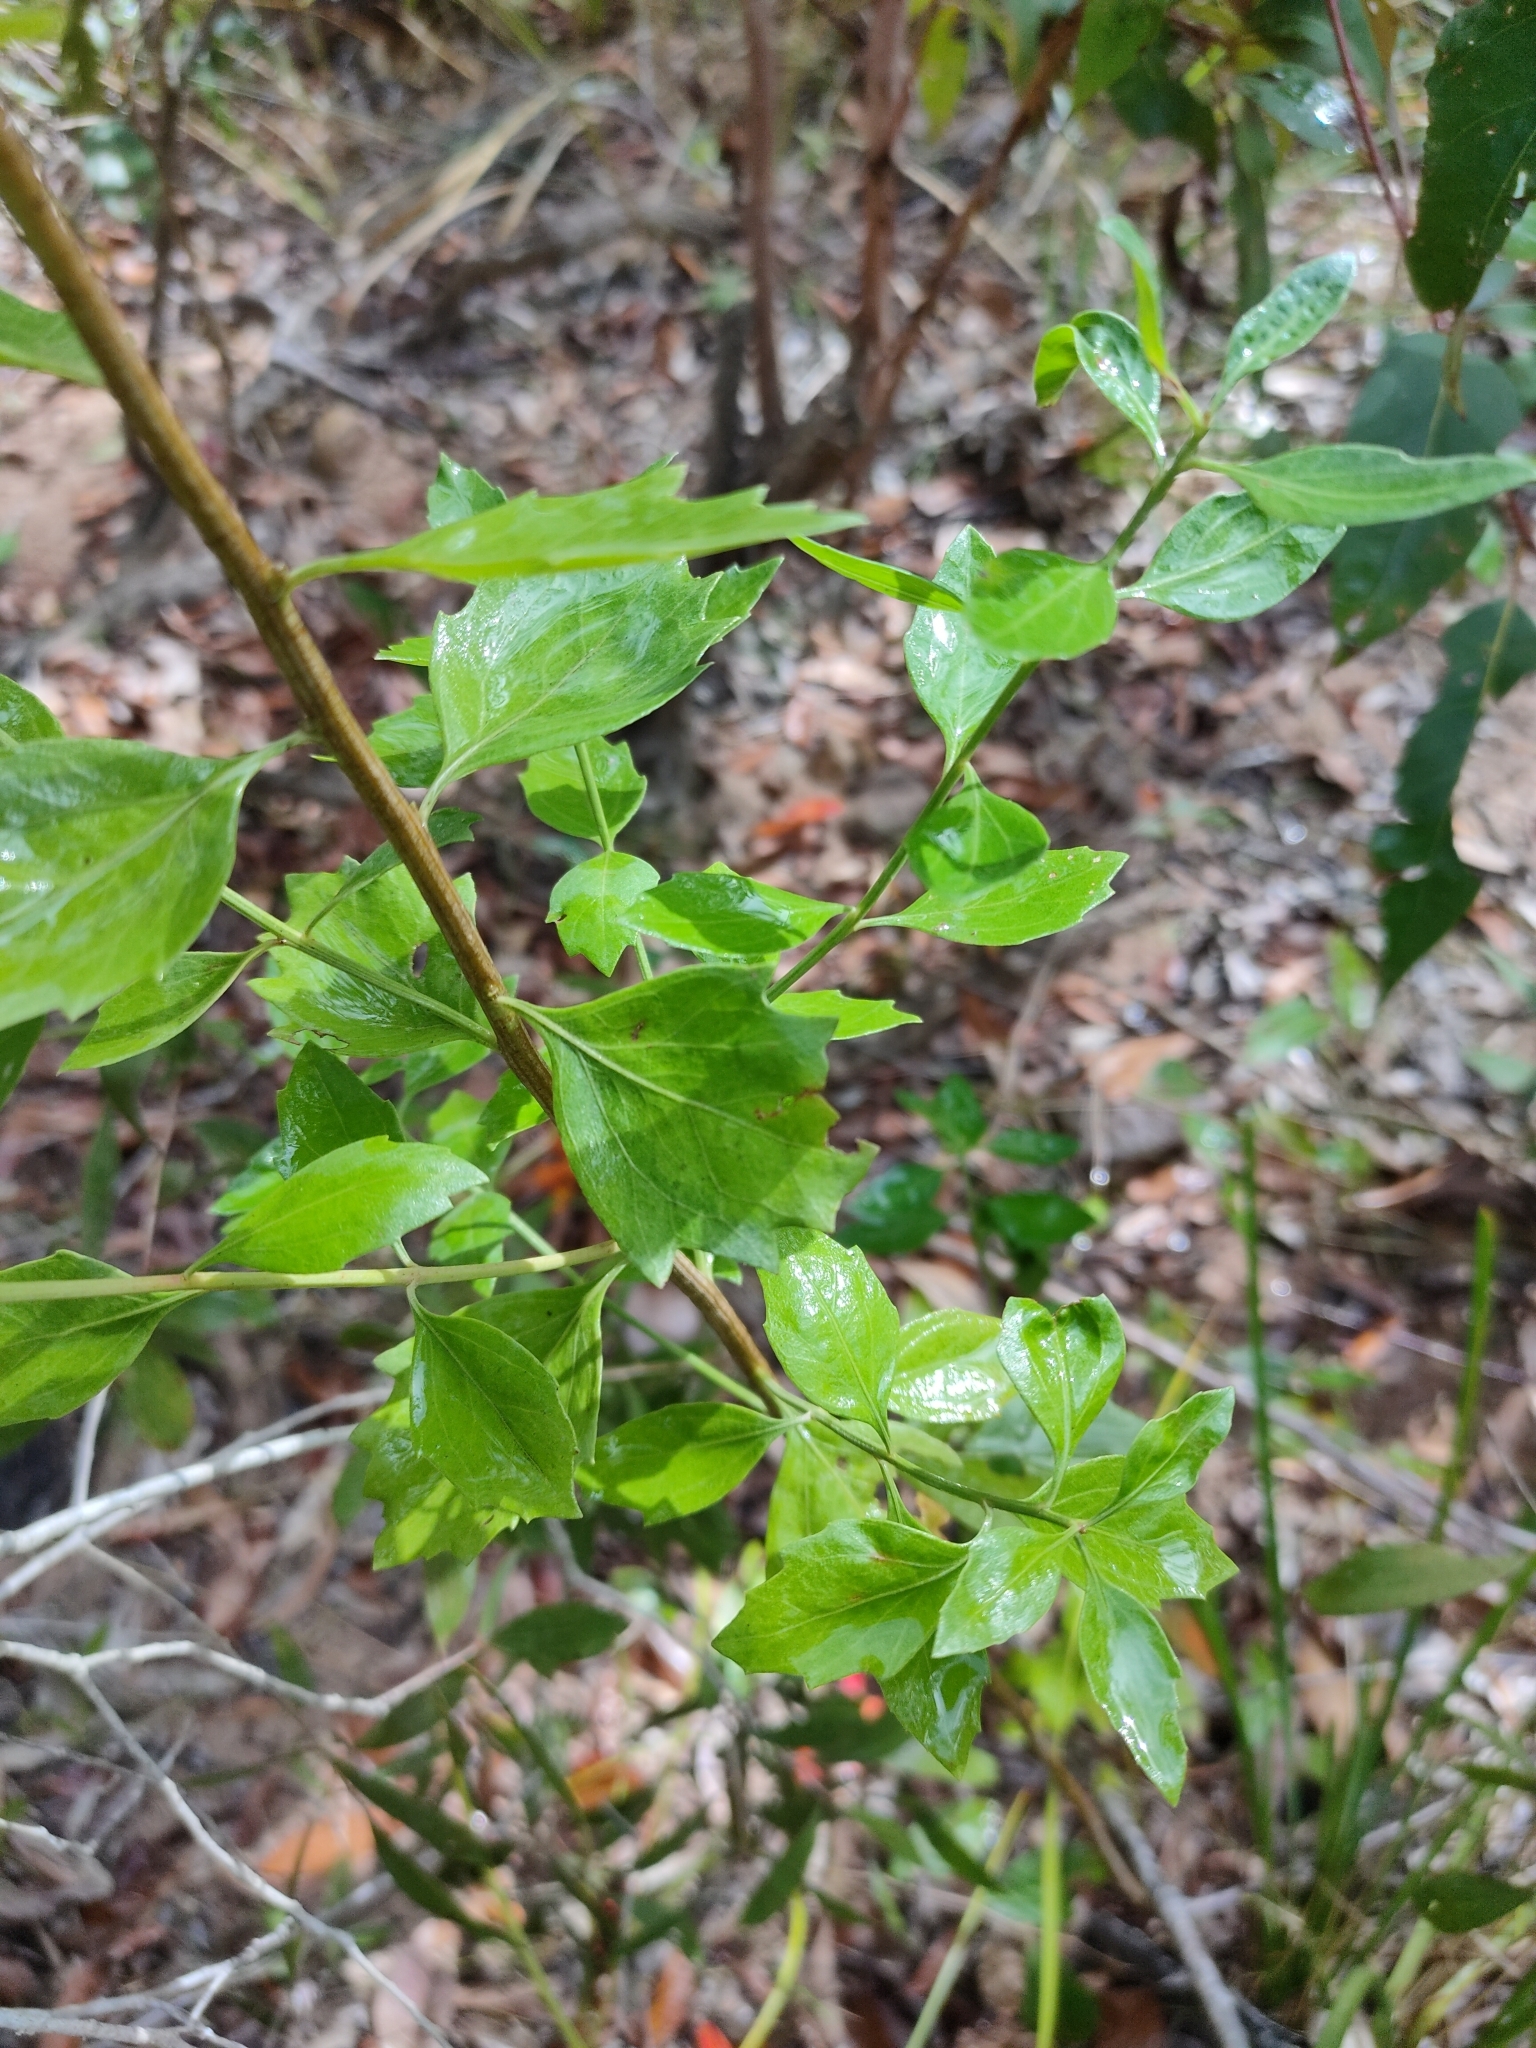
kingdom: Plantae
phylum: Tracheophyta
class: Magnoliopsida
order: Asterales
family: Asteraceae
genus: Baccharis
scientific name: Baccharis halimifolia
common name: Eastern baccharis
